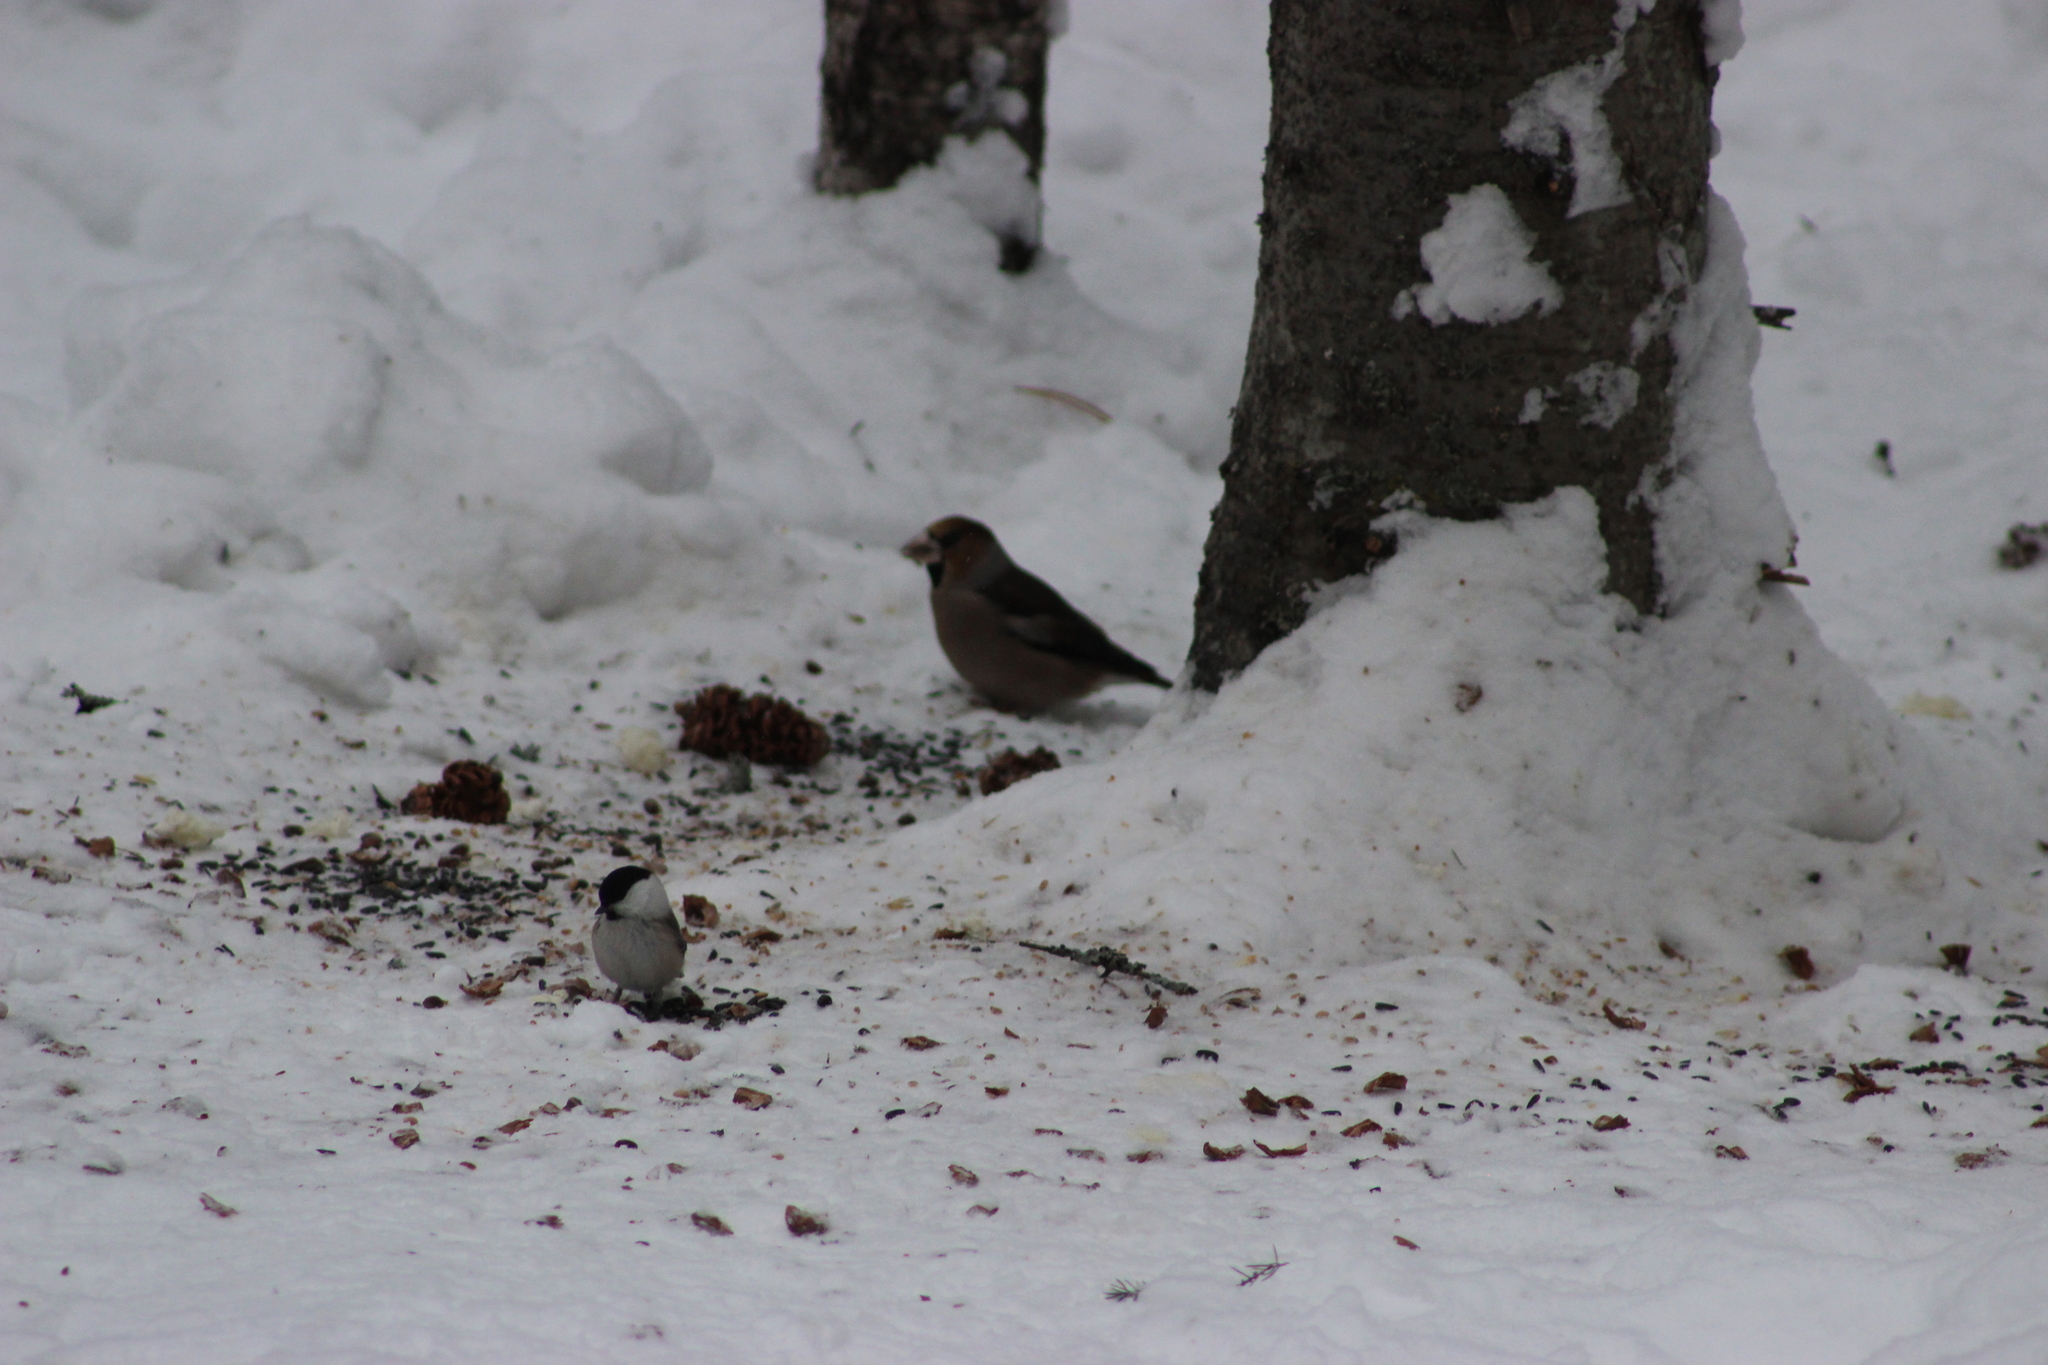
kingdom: Animalia
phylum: Chordata
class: Aves
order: Passeriformes
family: Fringillidae
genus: Coccothraustes
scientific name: Coccothraustes coccothraustes
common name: Hawfinch
